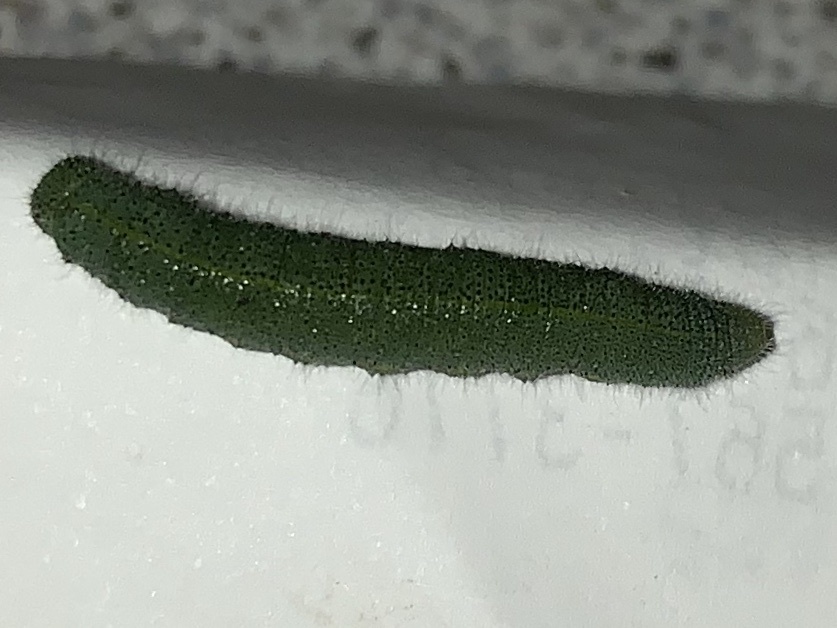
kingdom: Animalia
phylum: Arthropoda
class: Insecta
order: Lepidoptera
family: Pieridae
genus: Pieris
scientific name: Pieris rapae
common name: Small white
